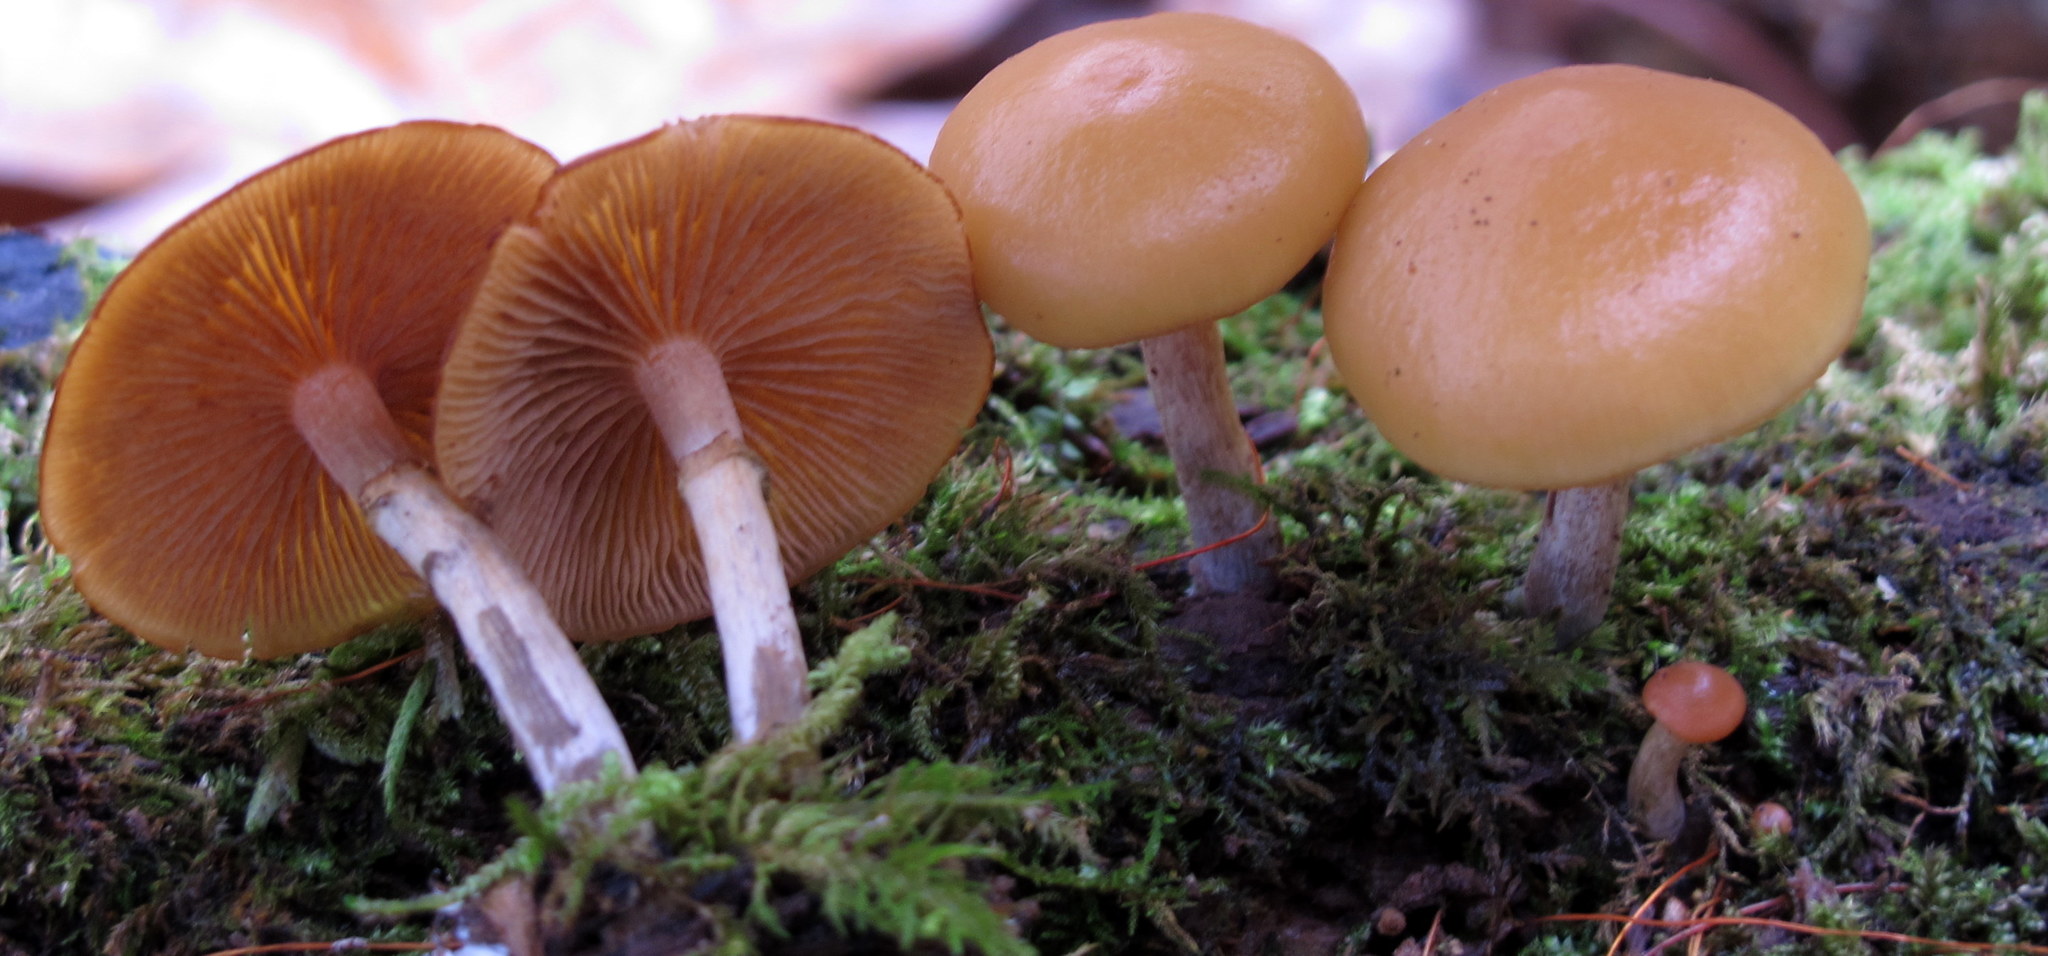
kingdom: Fungi
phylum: Basidiomycota
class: Agaricomycetes
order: Agaricales
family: Hymenogastraceae
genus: Galerina
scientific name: Galerina marginata
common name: Funeral bell
